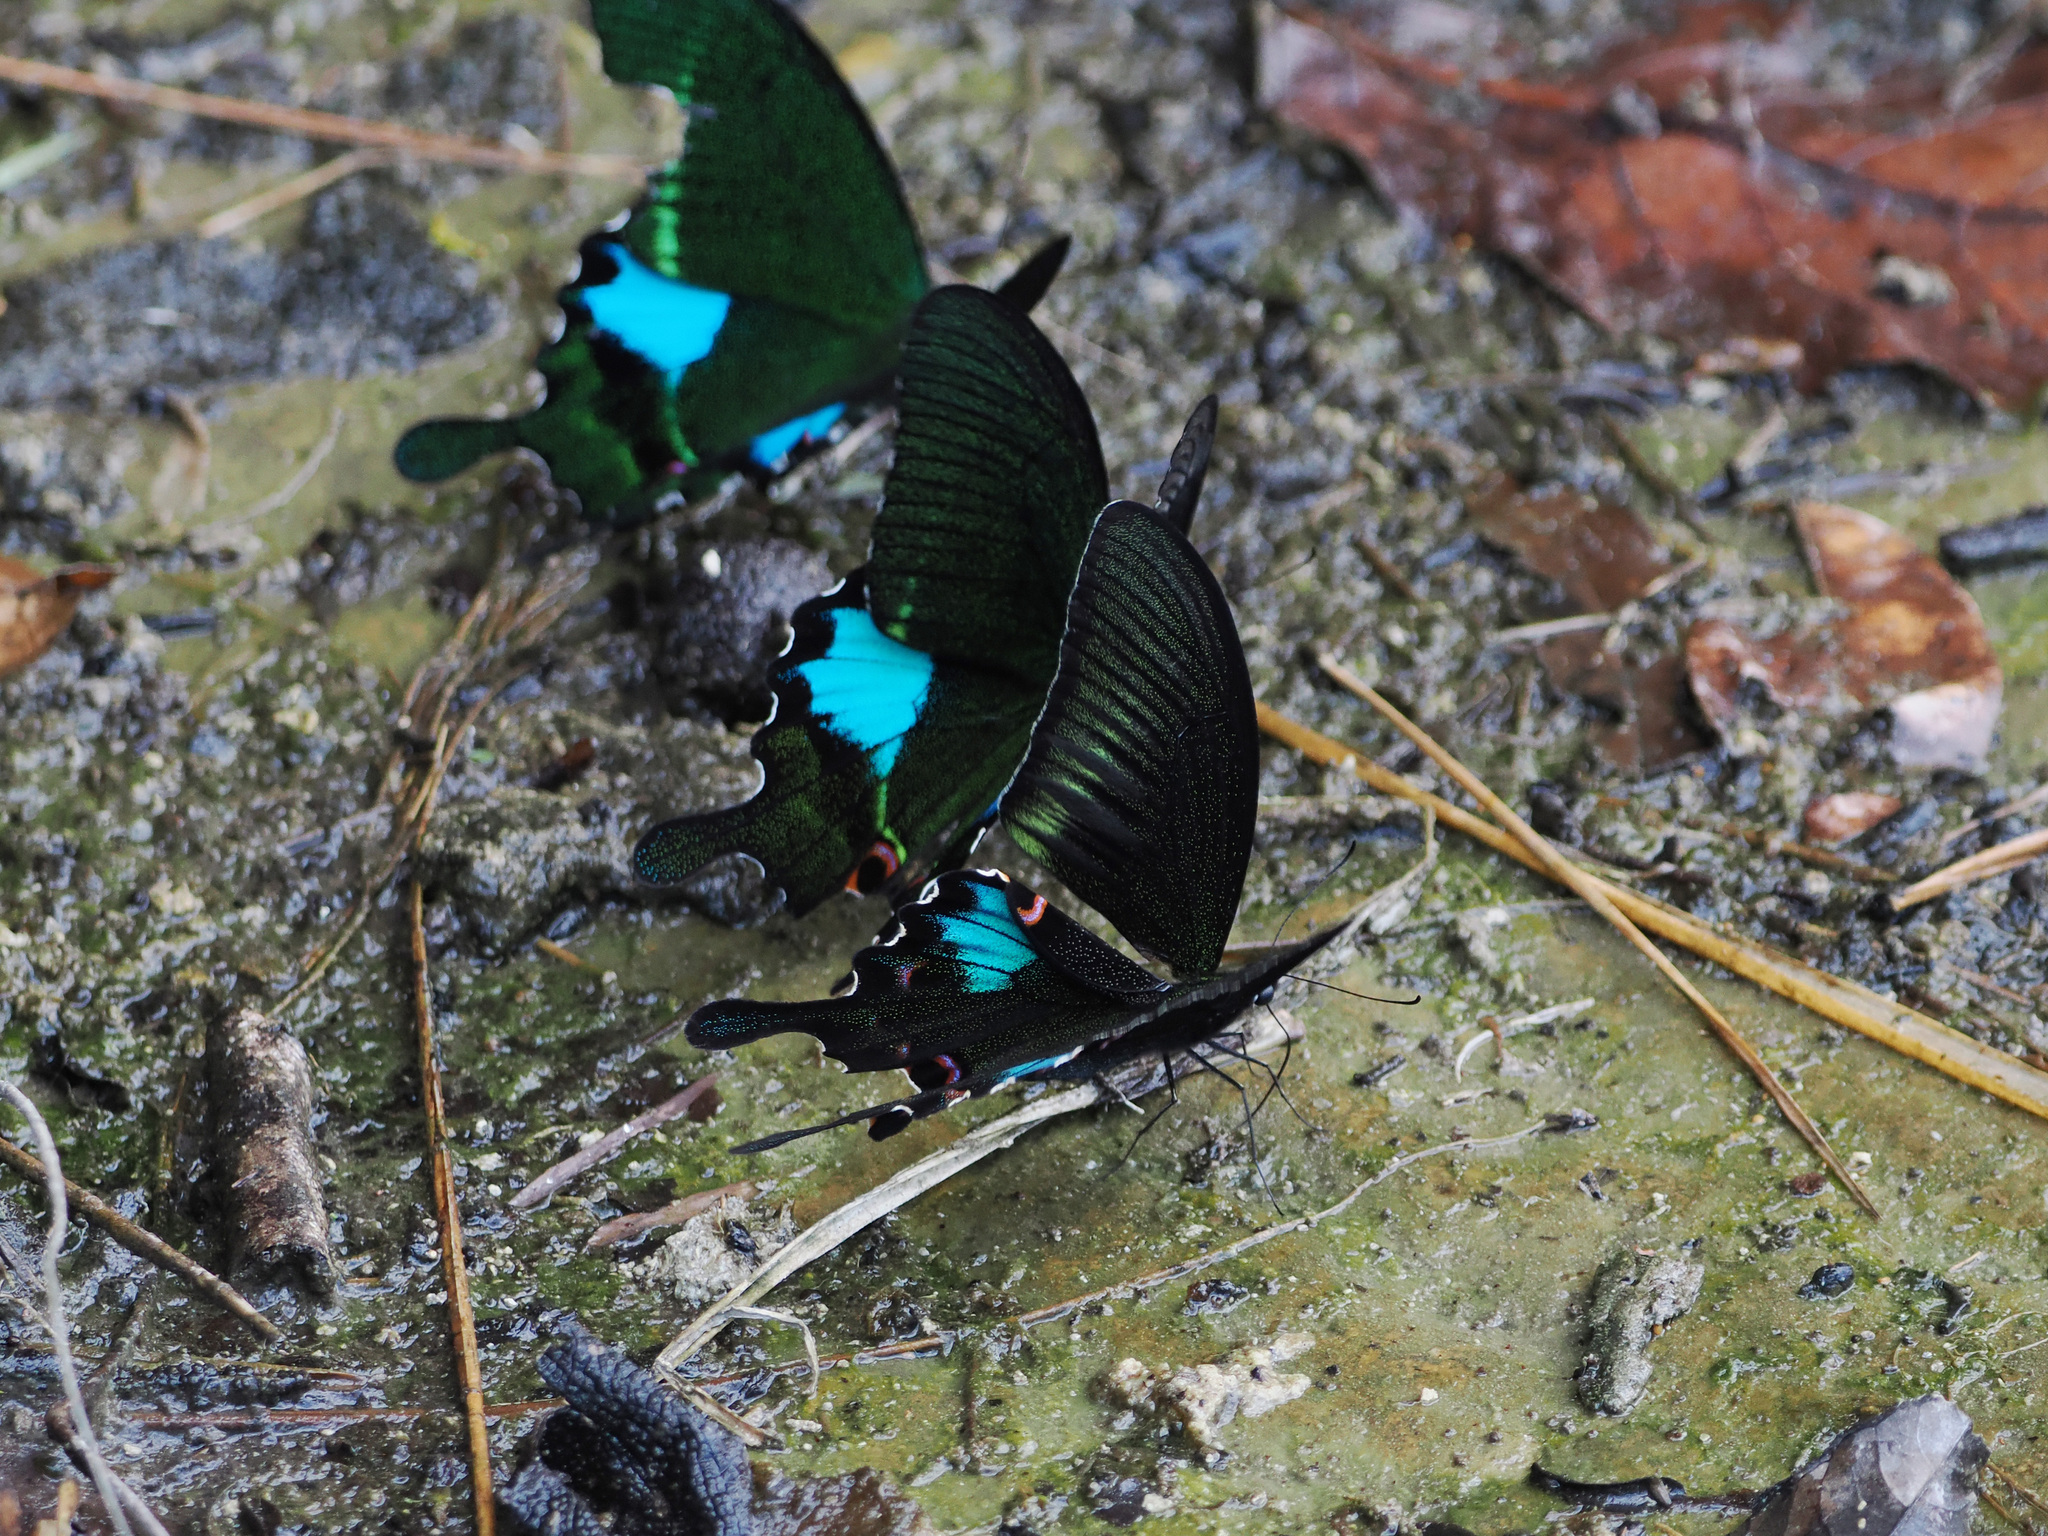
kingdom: Animalia
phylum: Arthropoda
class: Insecta
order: Lepidoptera
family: Papilionidae
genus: Papilio
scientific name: Papilio bianor
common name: Common peacock
